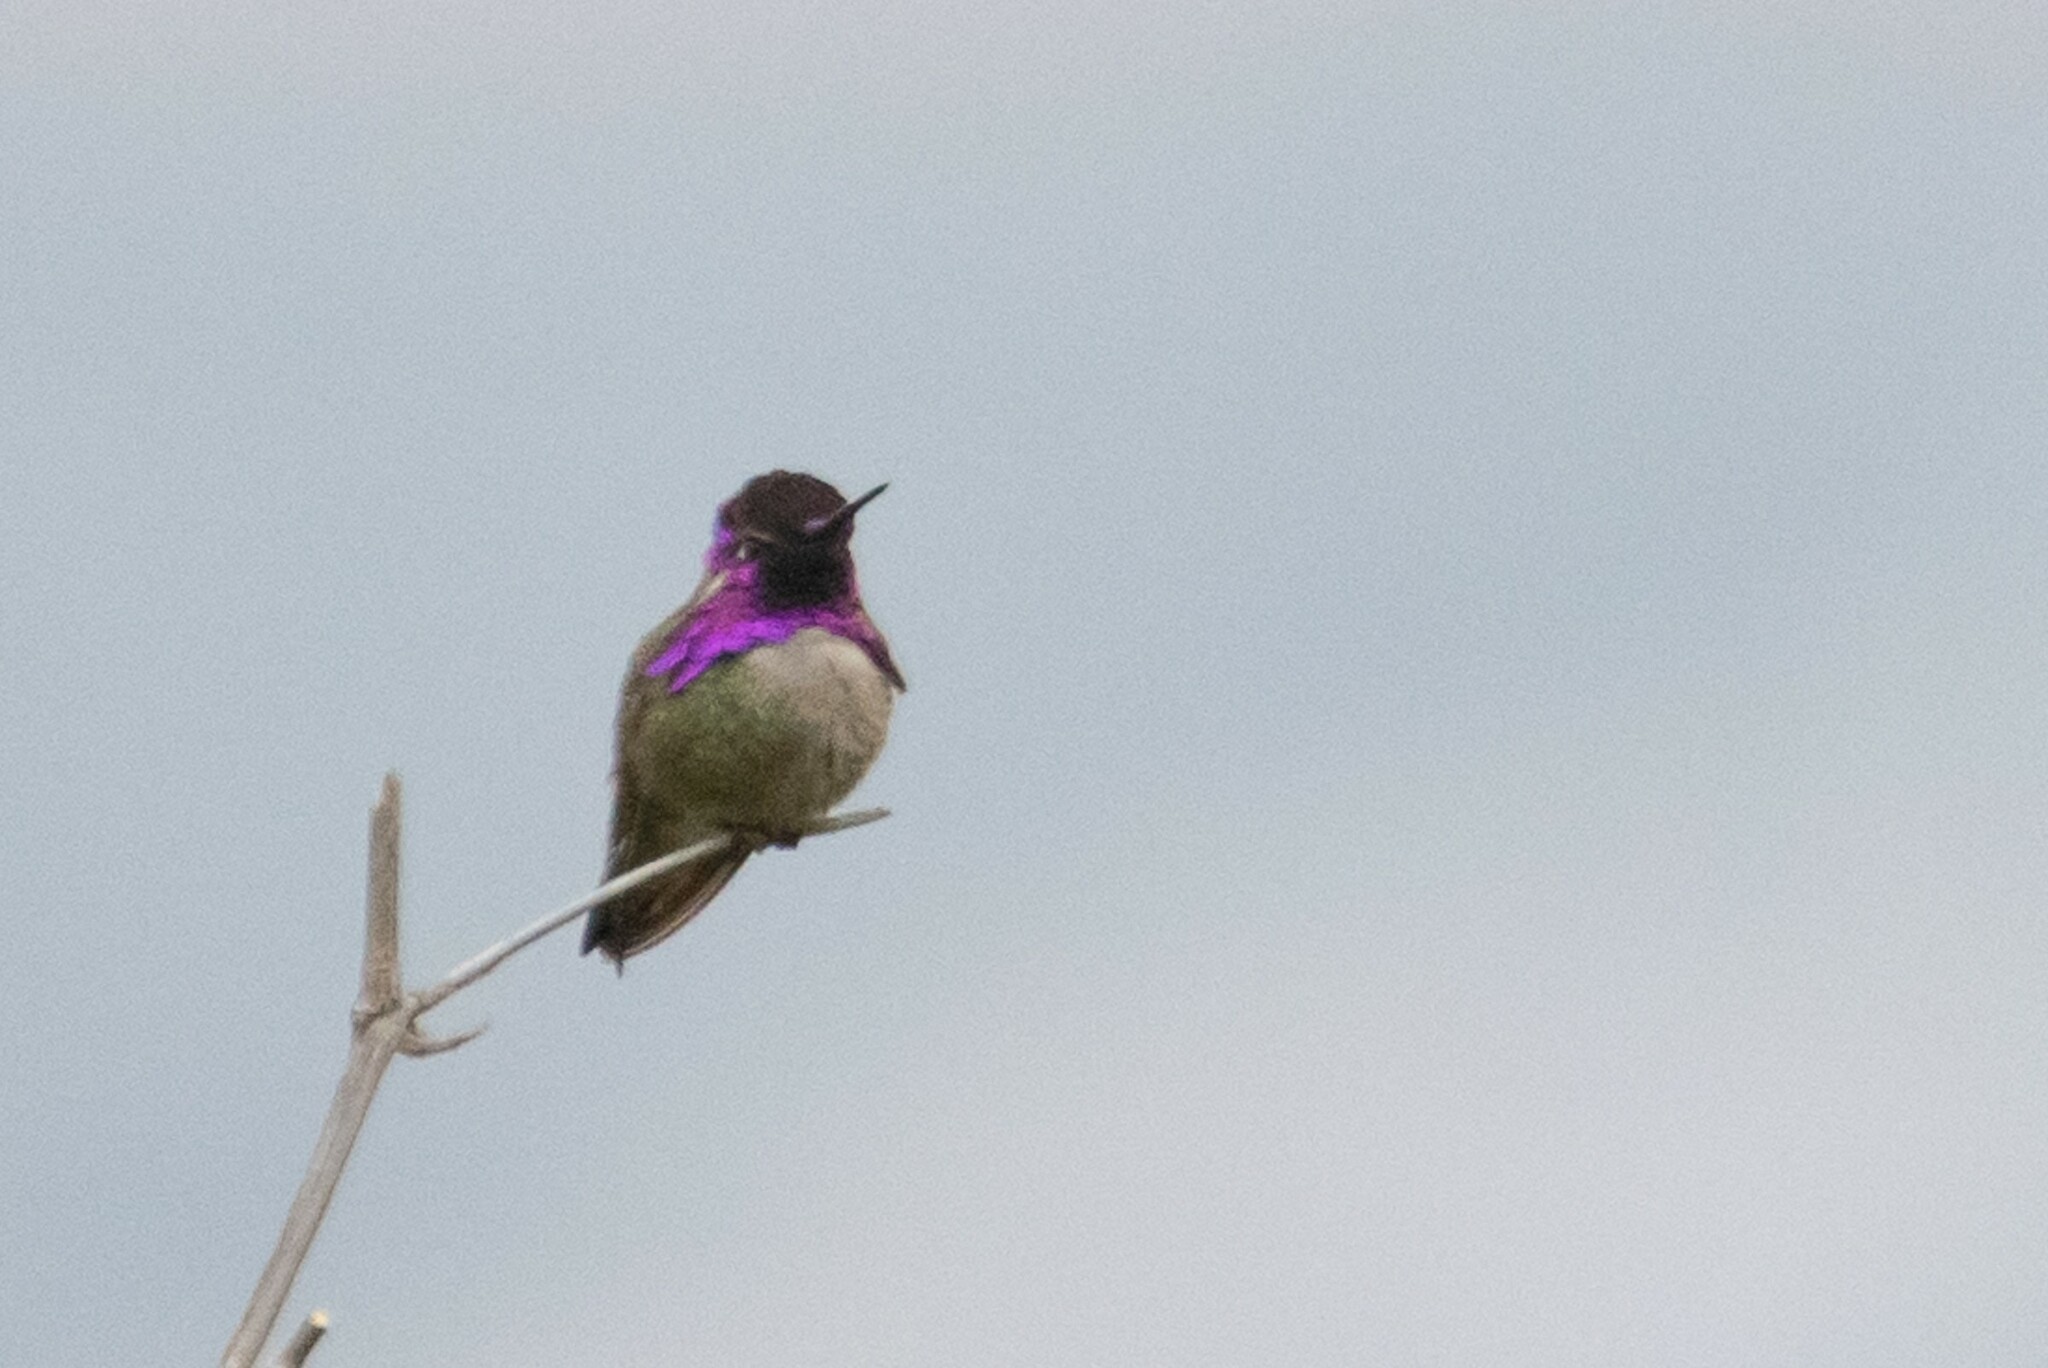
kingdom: Animalia
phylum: Chordata
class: Aves
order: Apodiformes
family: Trochilidae
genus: Calypte
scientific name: Calypte costae
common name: Costa's hummingbird
